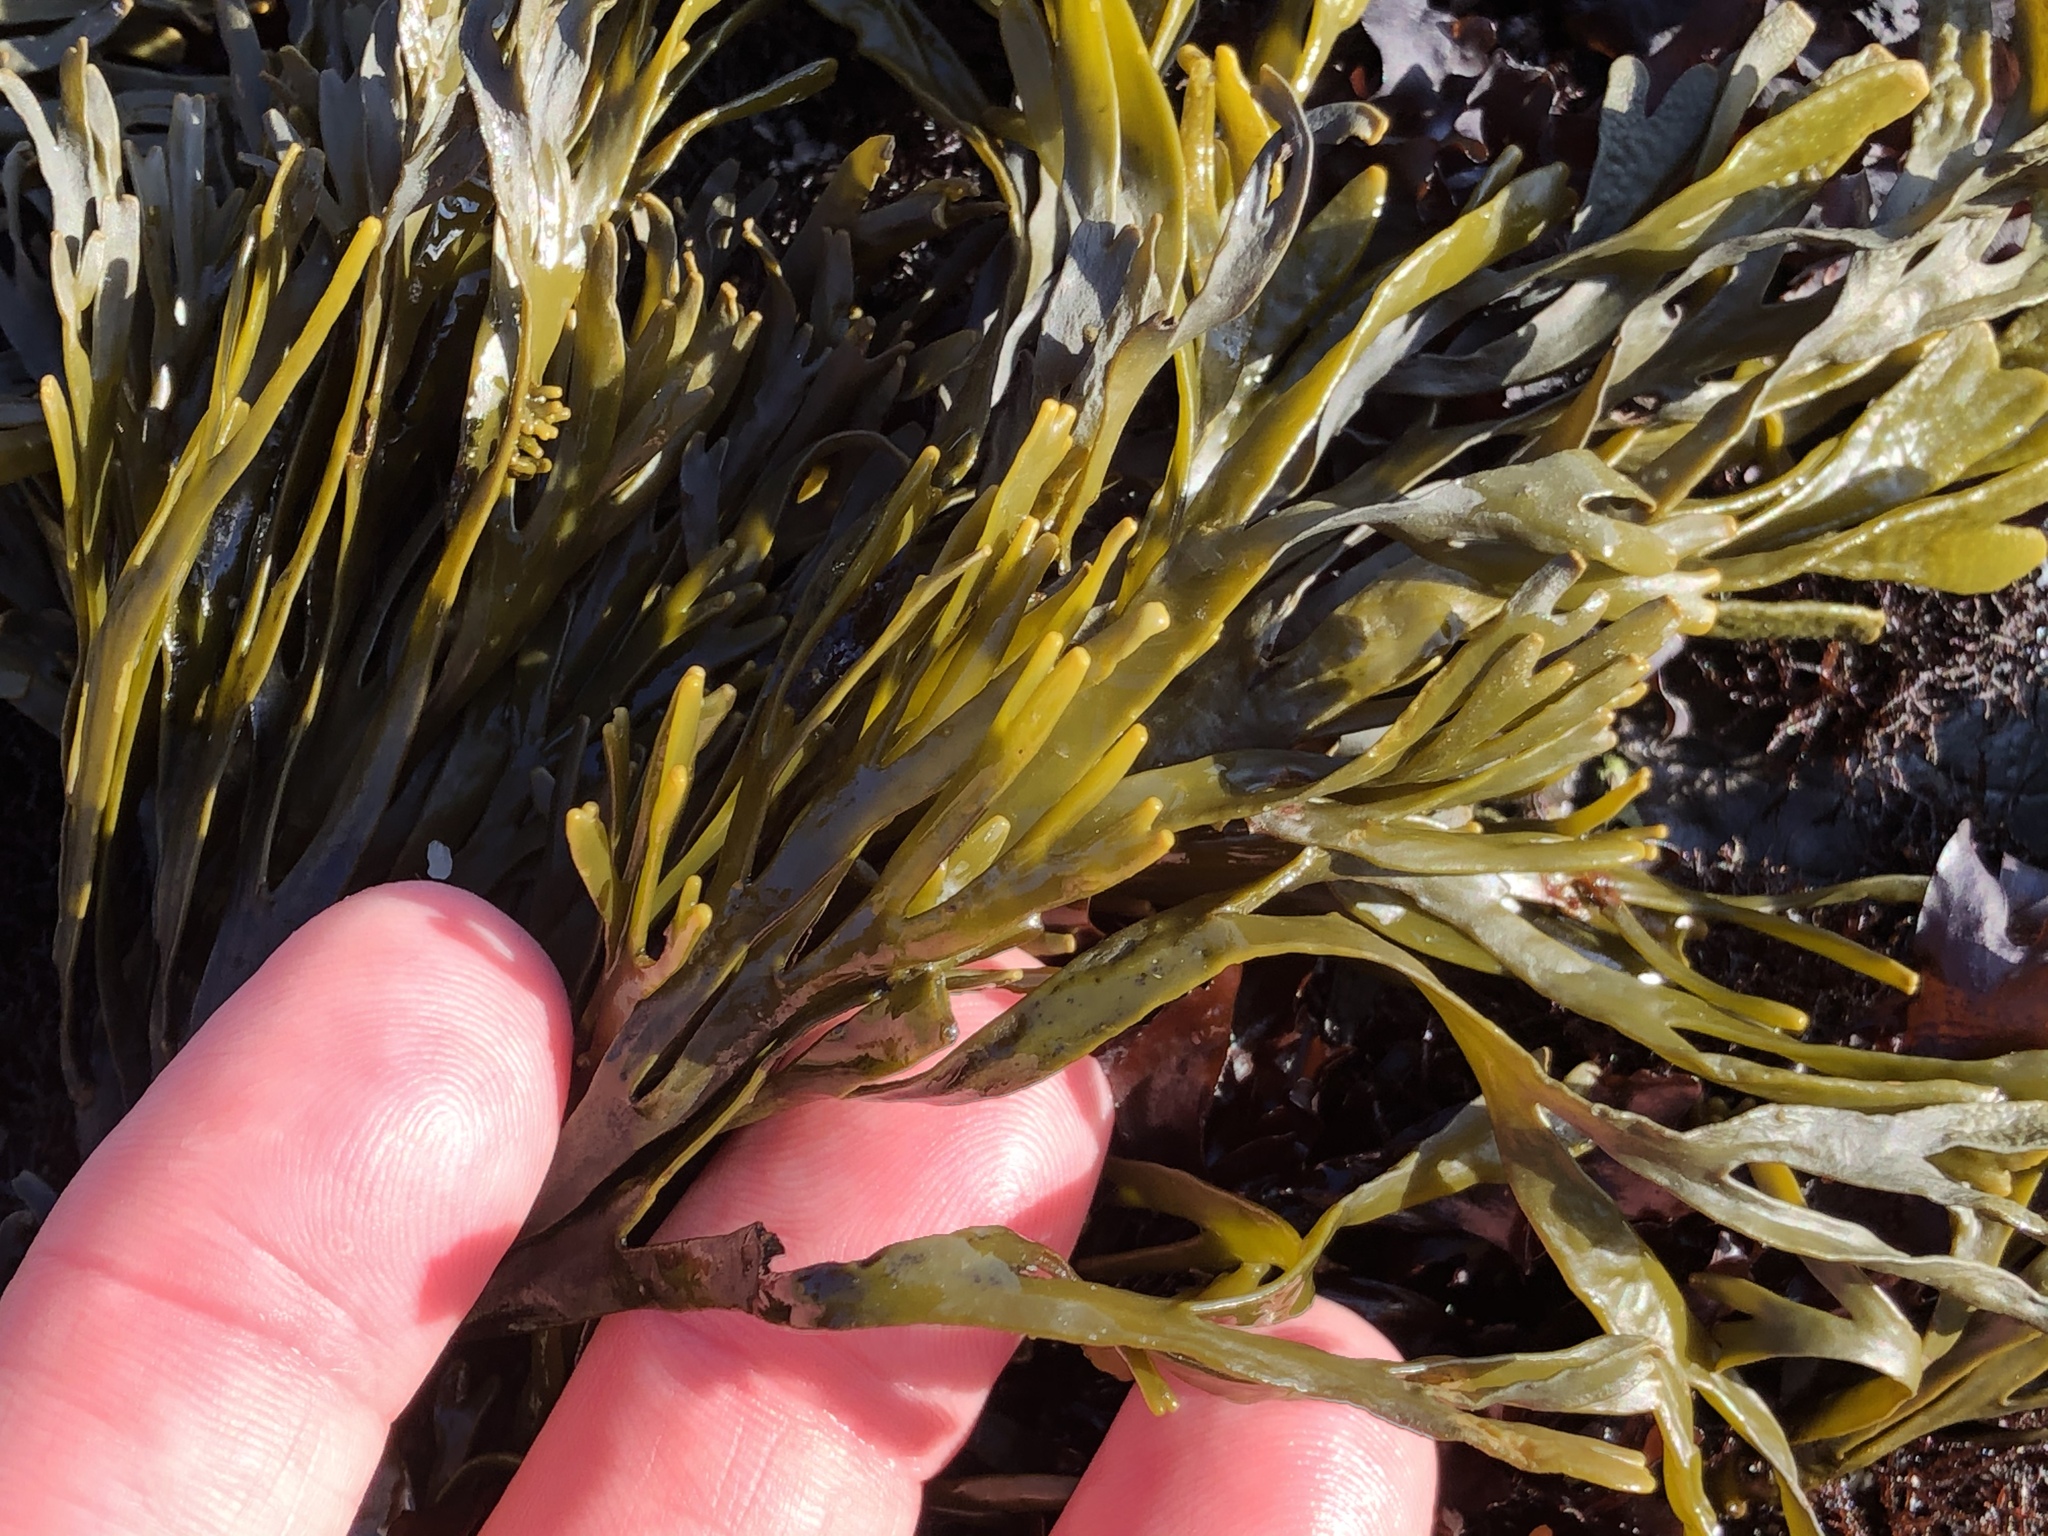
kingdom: Chromista
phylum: Ochrophyta
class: Phaeophyceae
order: Fucales
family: Fucaceae
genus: Pelvetiopsis
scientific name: Pelvetiopsis limitata
